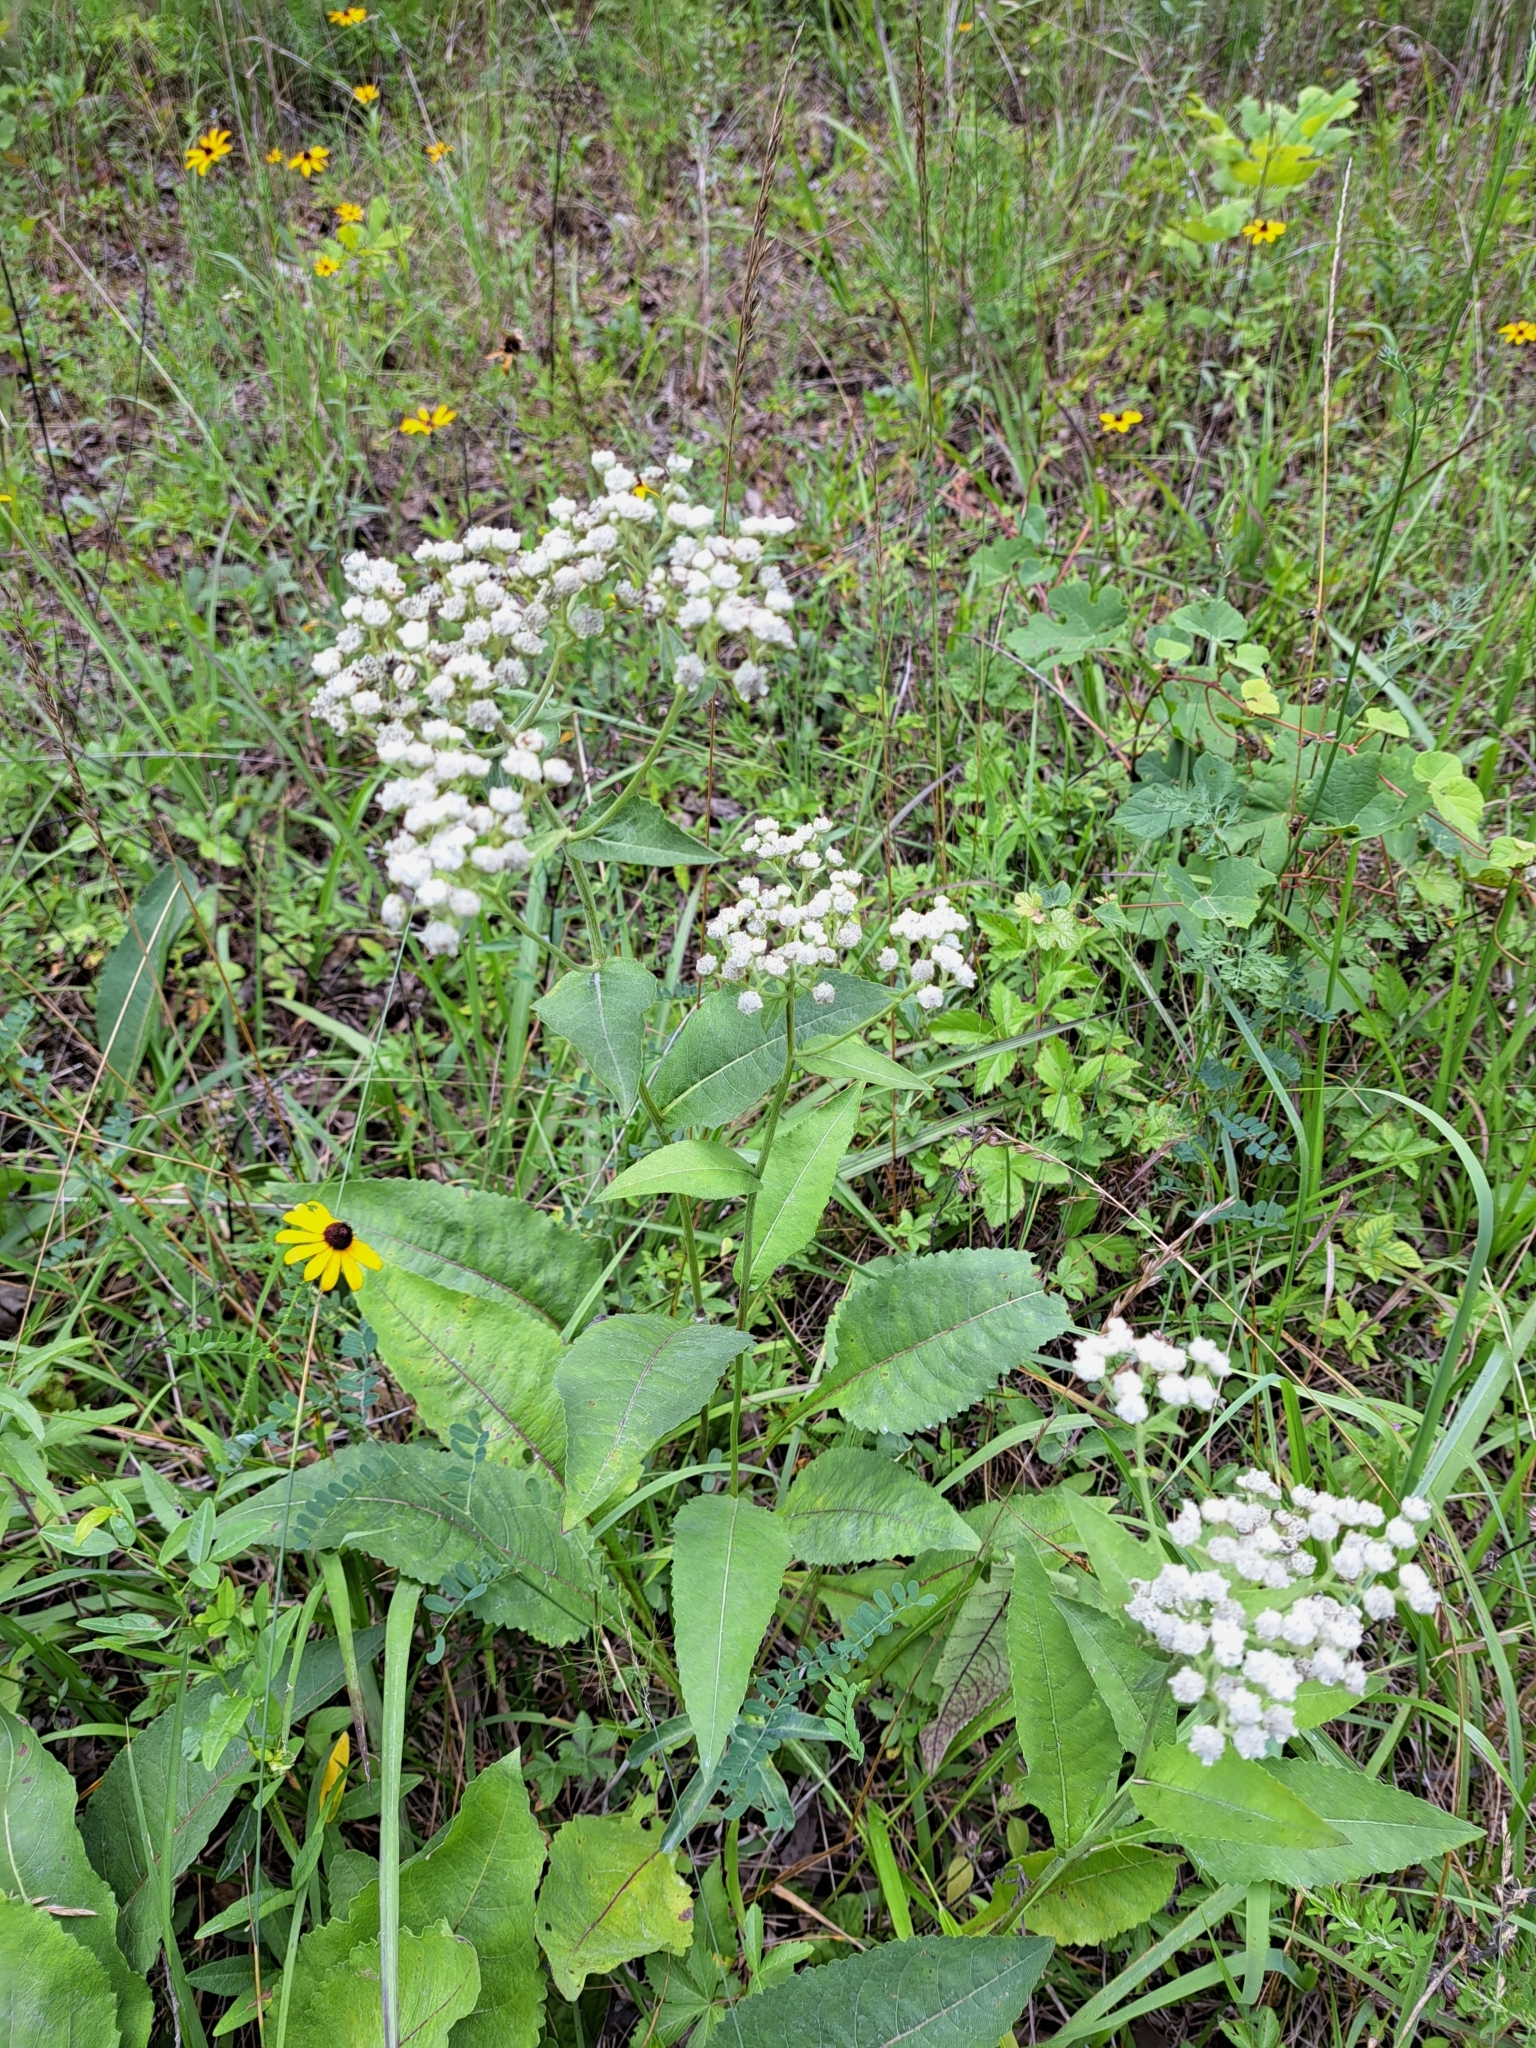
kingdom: Plantae
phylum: Tracheophyta
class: Magnoliopsida
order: Asterales
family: Asteraceae
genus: Parthenium
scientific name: Parthenium integrifolium
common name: American feverfew
